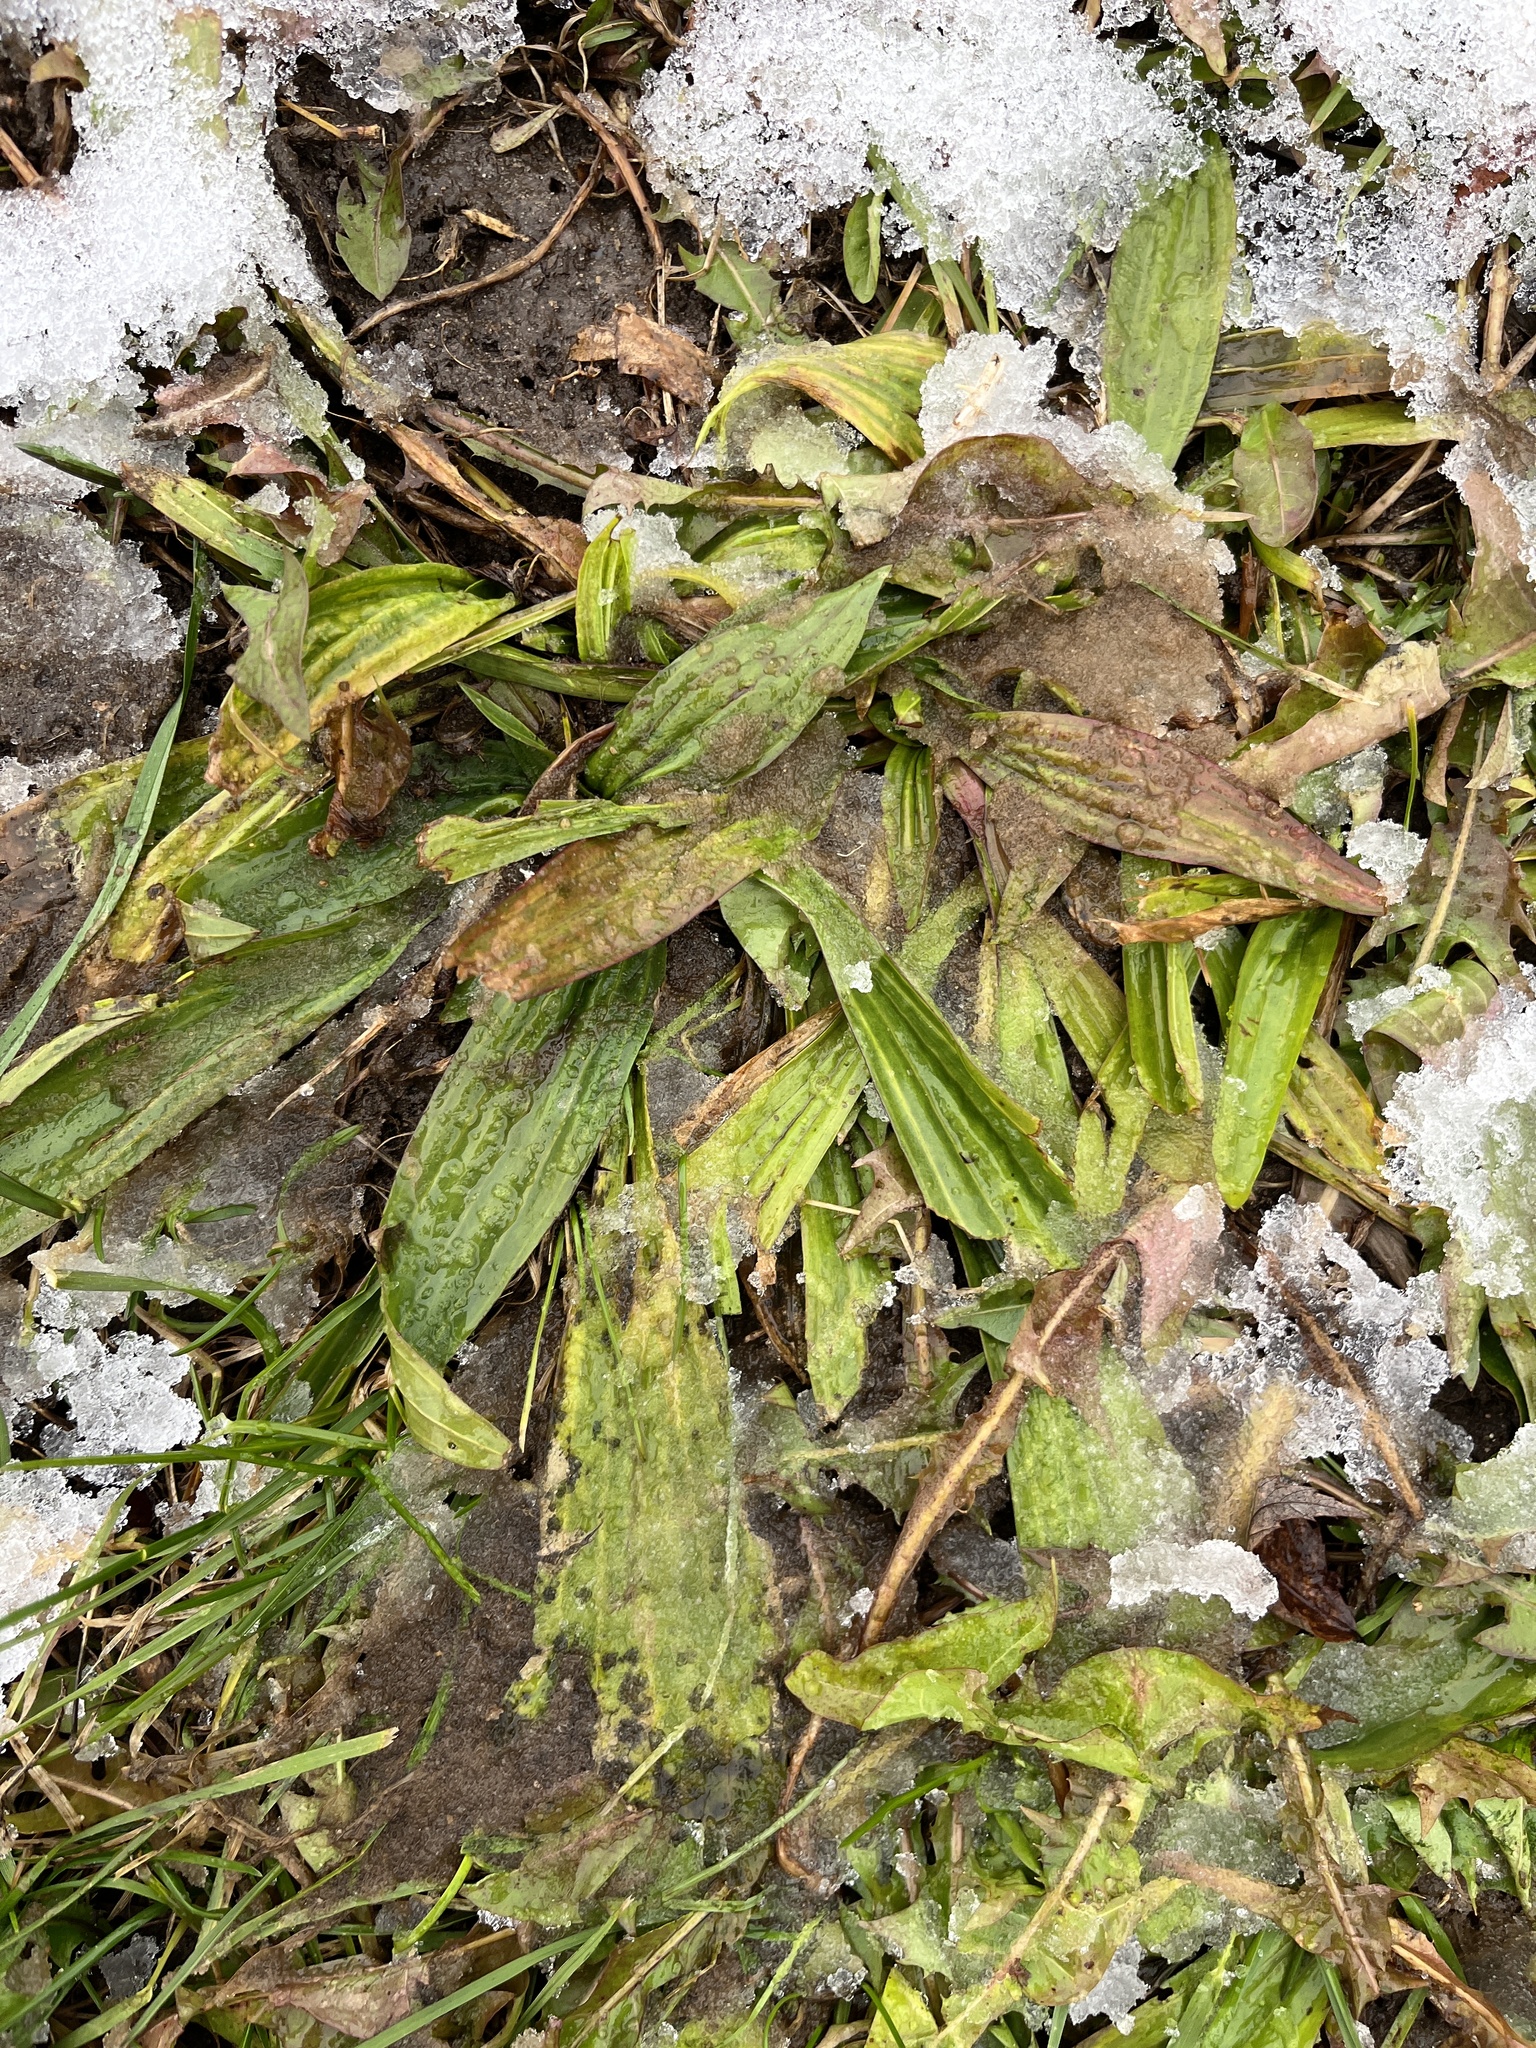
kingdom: Plantae
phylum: Tracheophyta
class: Magnoliopsida
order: Lamiales
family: Plantaginaceae
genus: Plantago
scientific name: Plantago lanceolata
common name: Ribwort plantain
